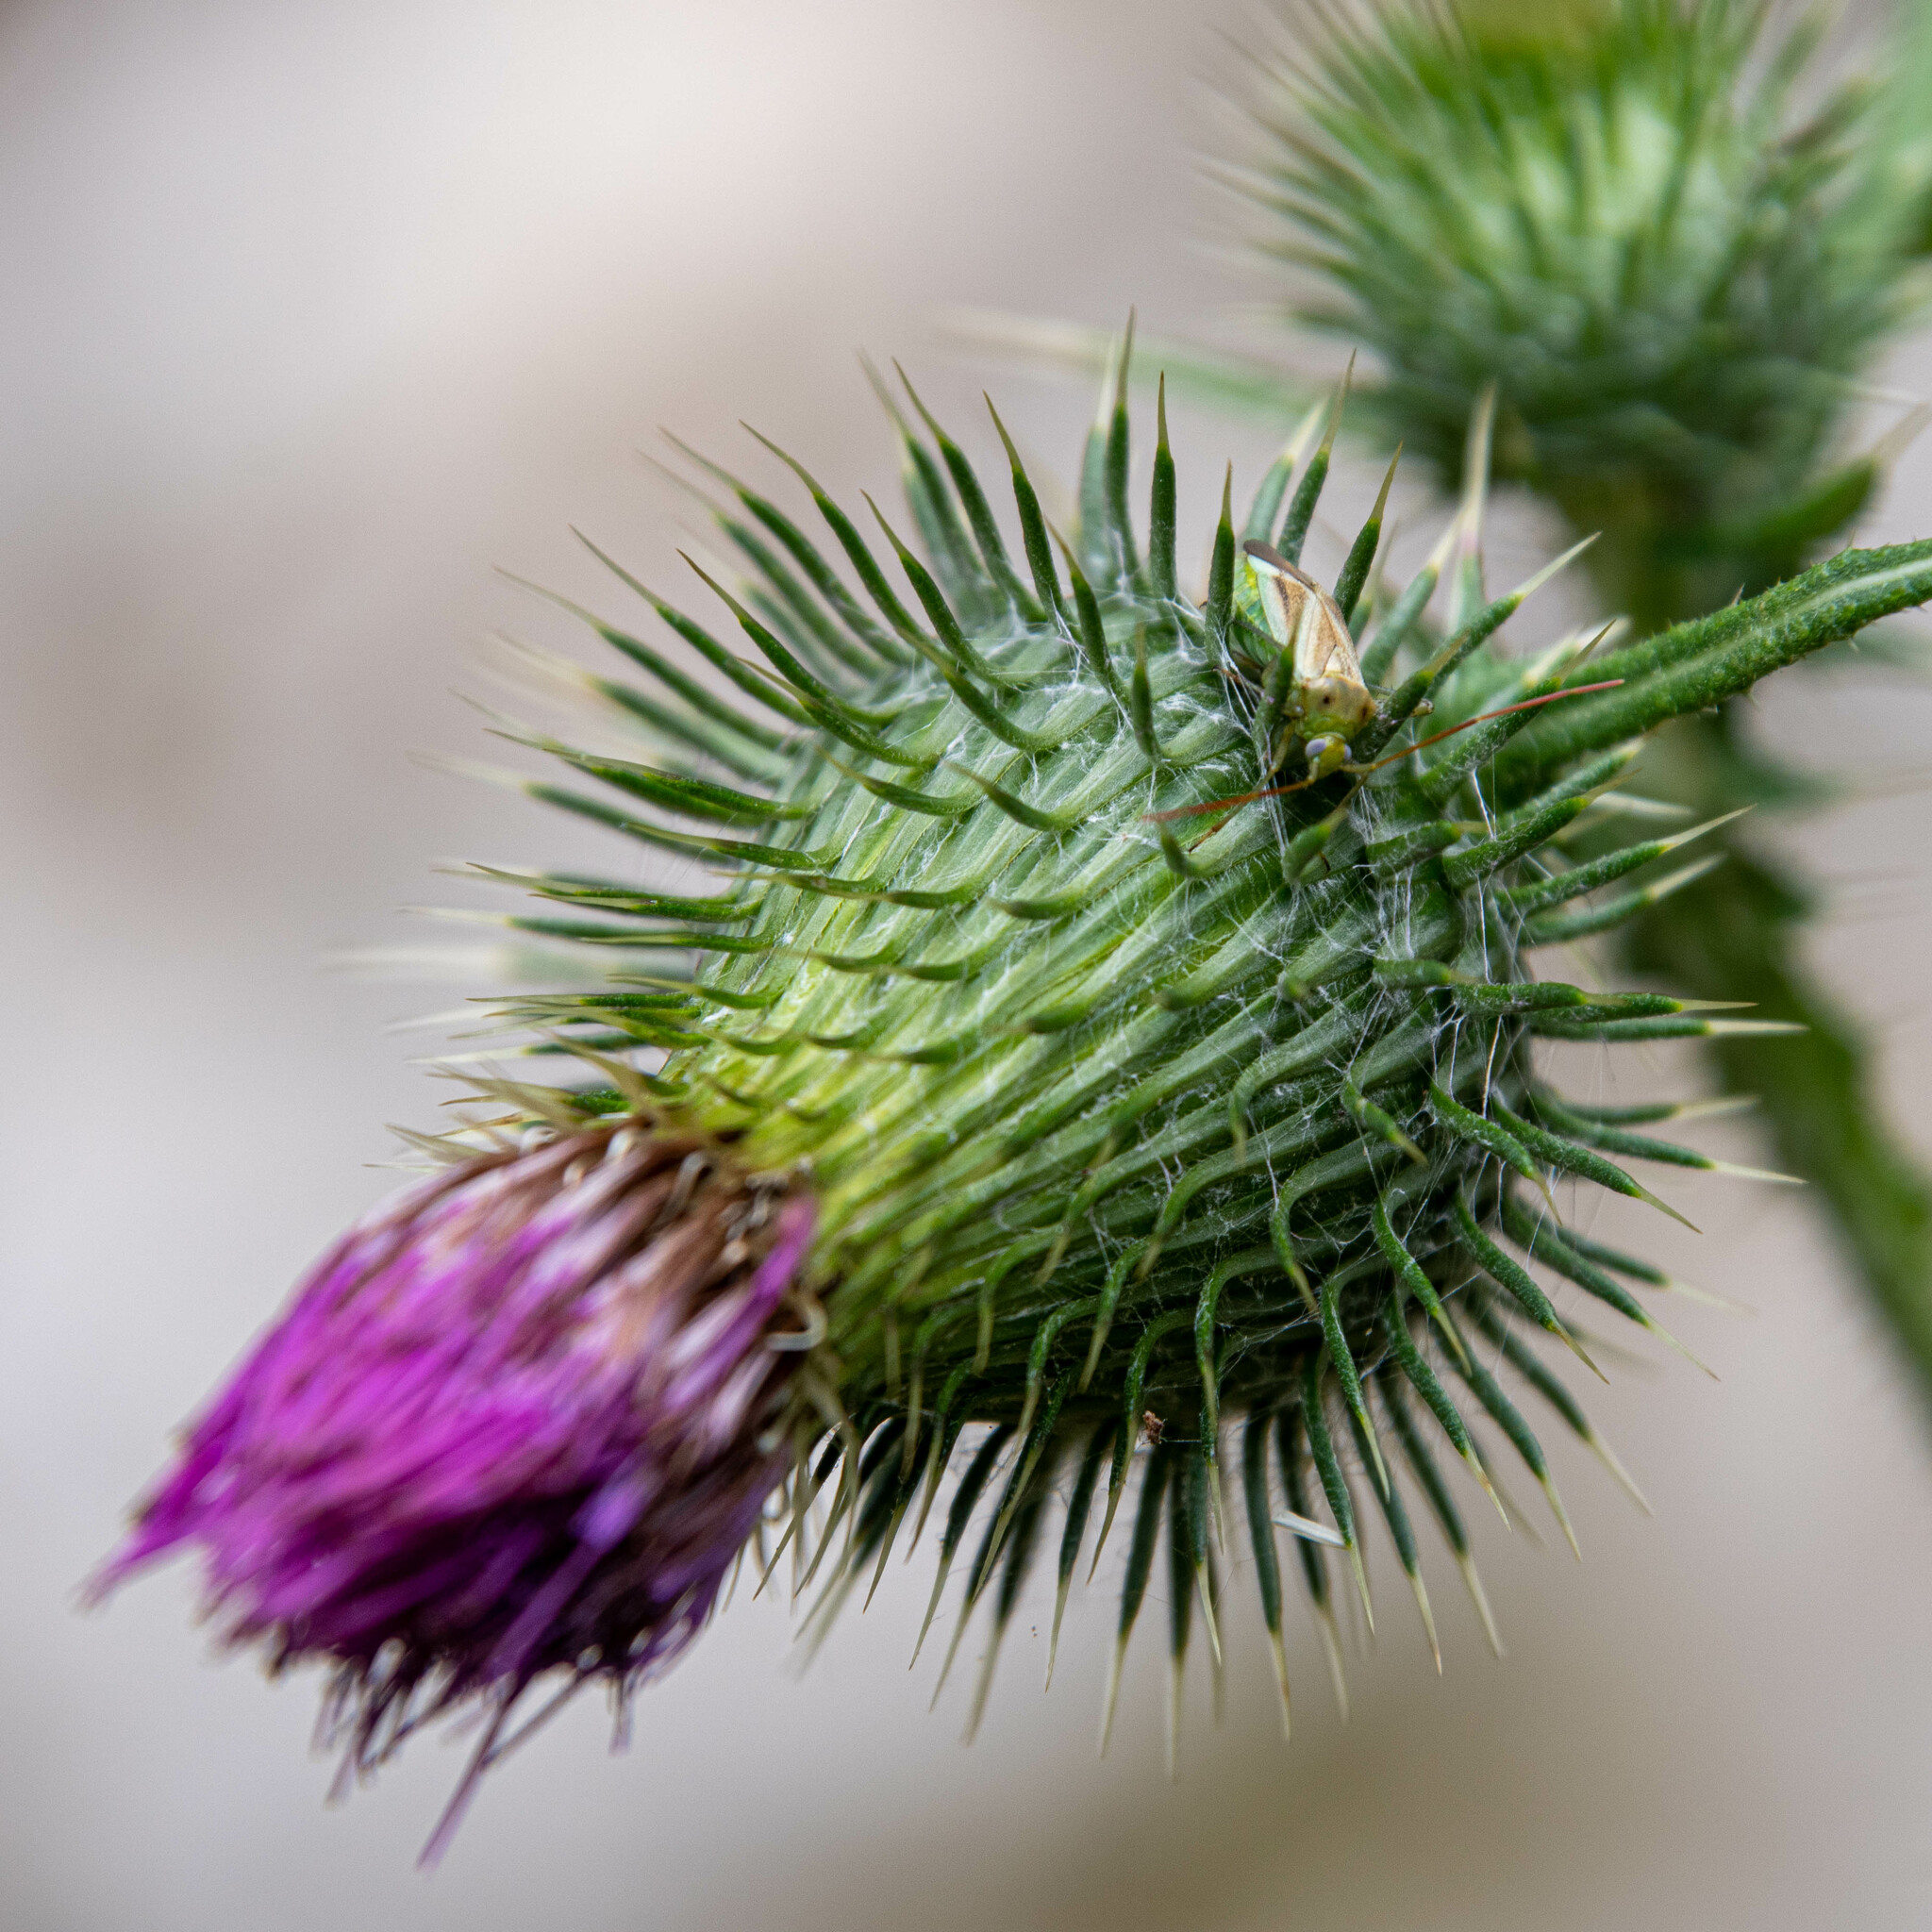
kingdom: Plantae
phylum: Tracheophyta
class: Magnoliopsida
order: Asterales
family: Asteraceae
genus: Cirsium
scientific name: Cirsium vulgare
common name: Bull thistle
